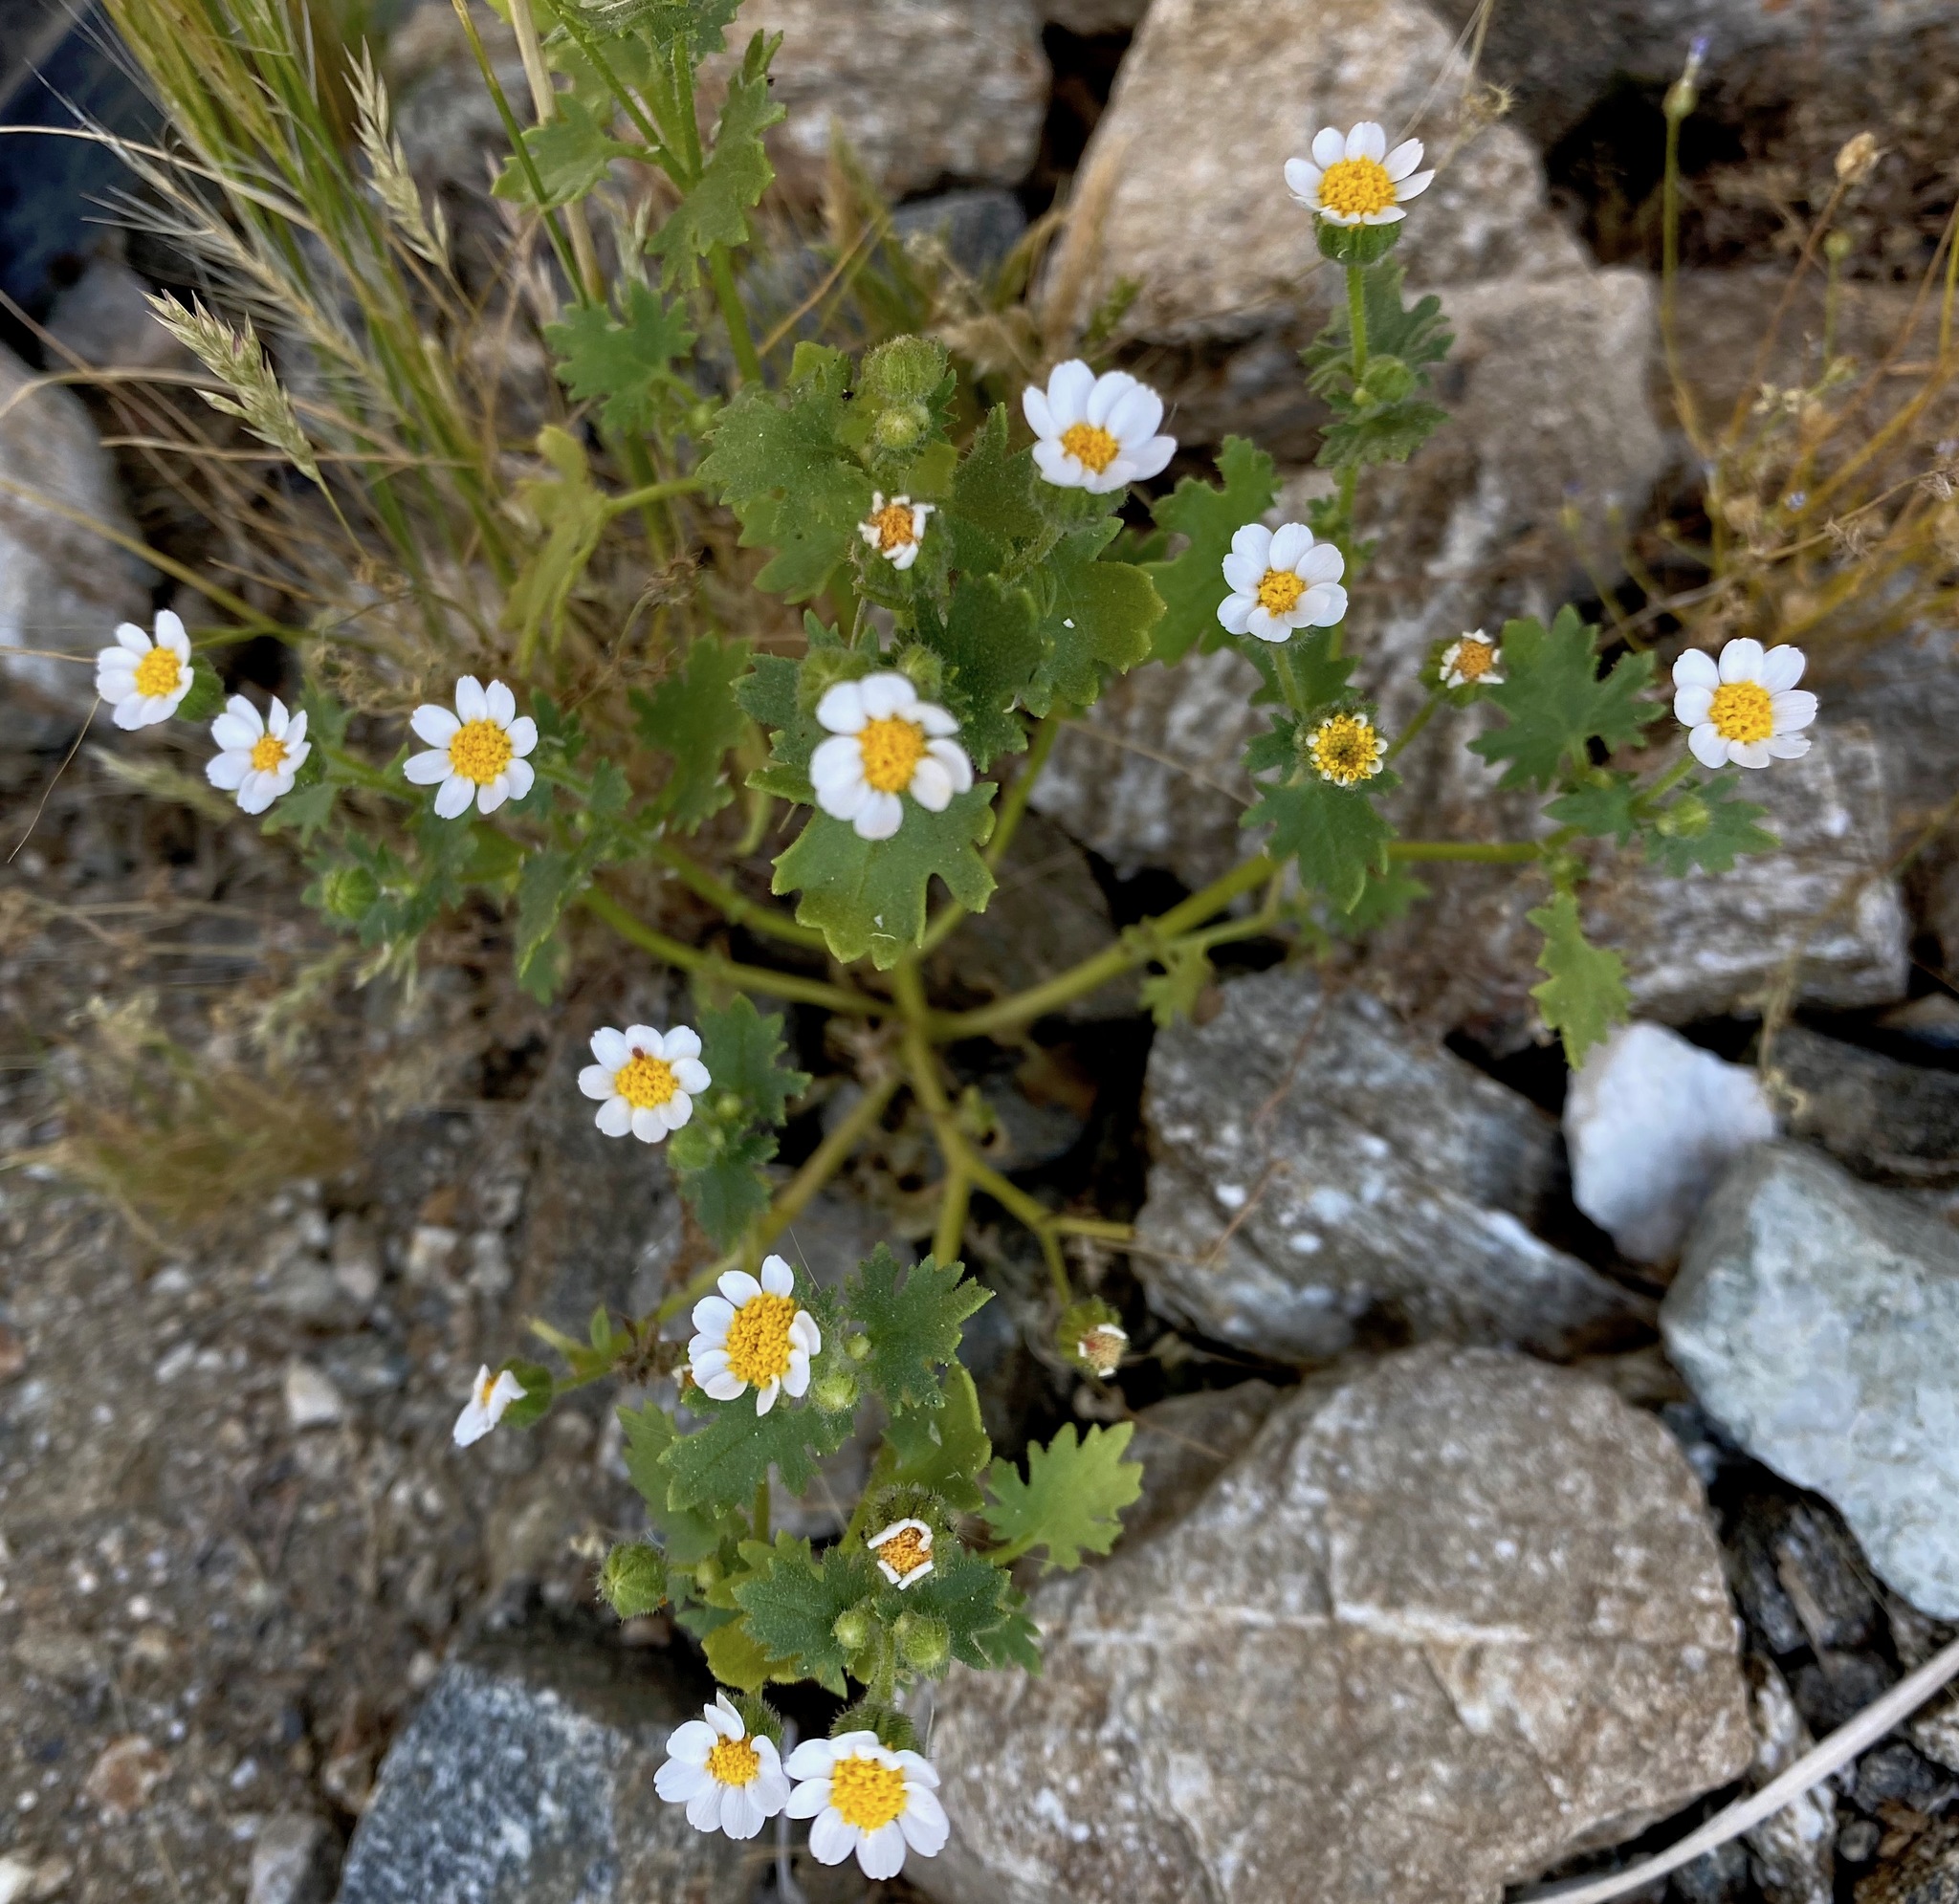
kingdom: Plantae
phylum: Tracheophyta
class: Magnoliopsida
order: Asterales
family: Asteraceae
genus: Laphamia
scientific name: Laphamia emoryi
